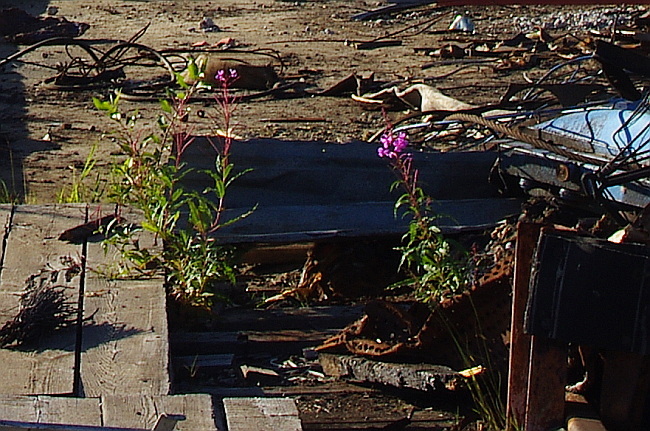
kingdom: Plantae
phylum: Tracheophyta
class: Magnoliopsida
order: Myrtales
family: Onagraceae
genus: Chamaenerion
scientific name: Chamaenerion angustifolium
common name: Fireweed
